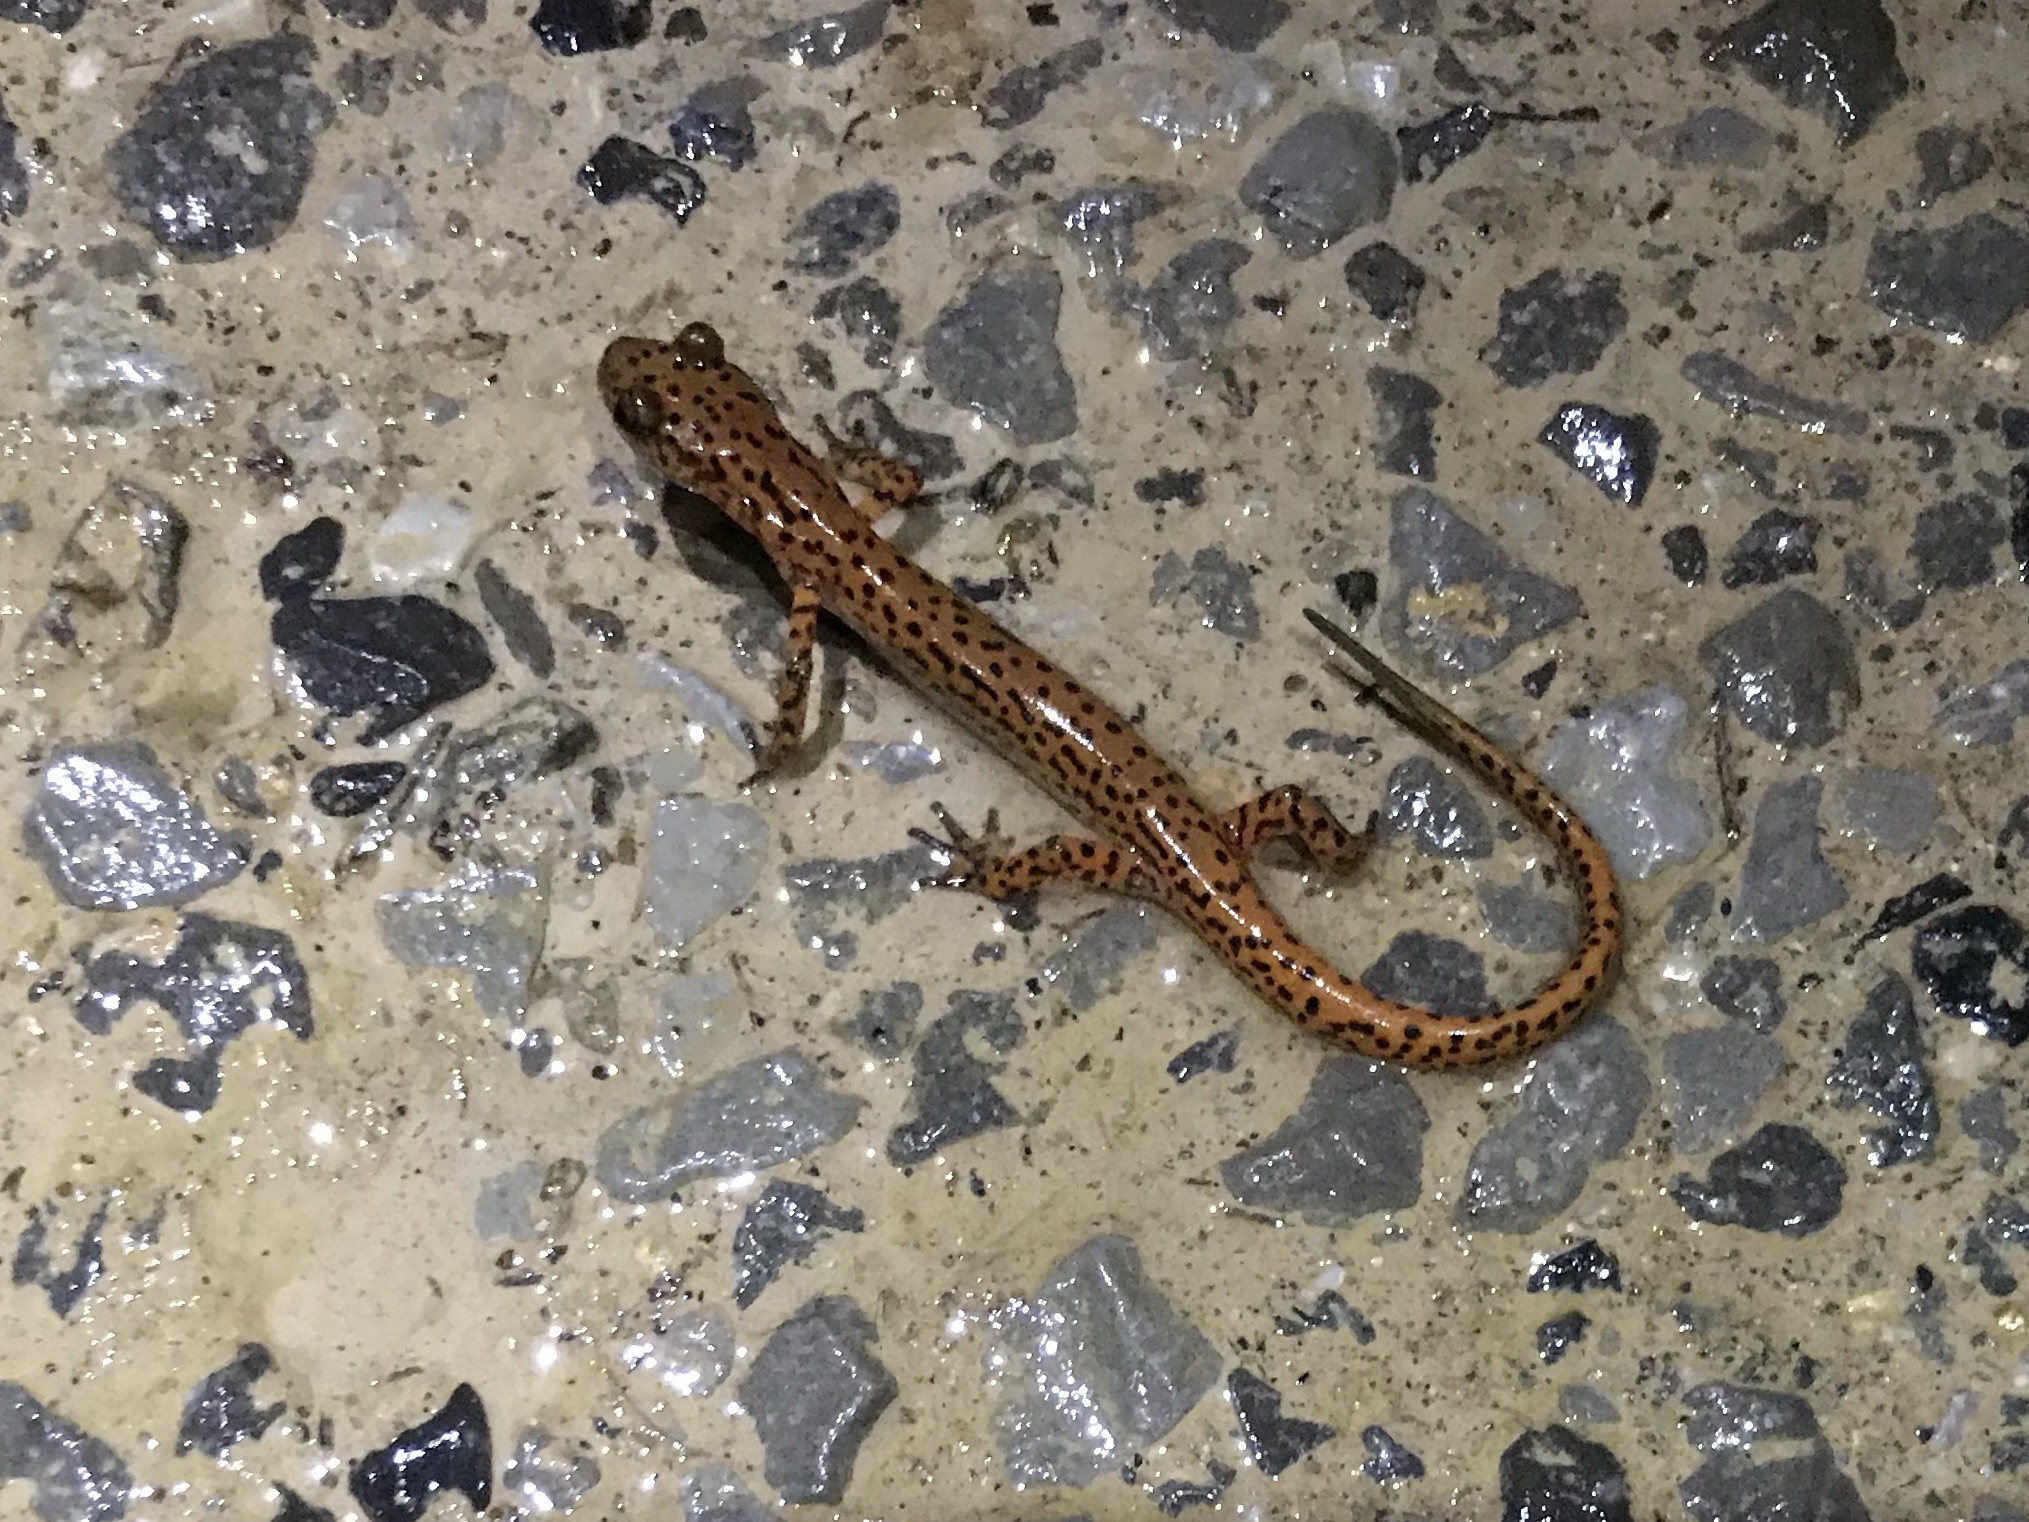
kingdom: Animalia
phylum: Chordata
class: Amphibia
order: Caudata
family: Plethodontidae
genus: Eurycea
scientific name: Eurycea lucifuga
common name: Cave salamander
